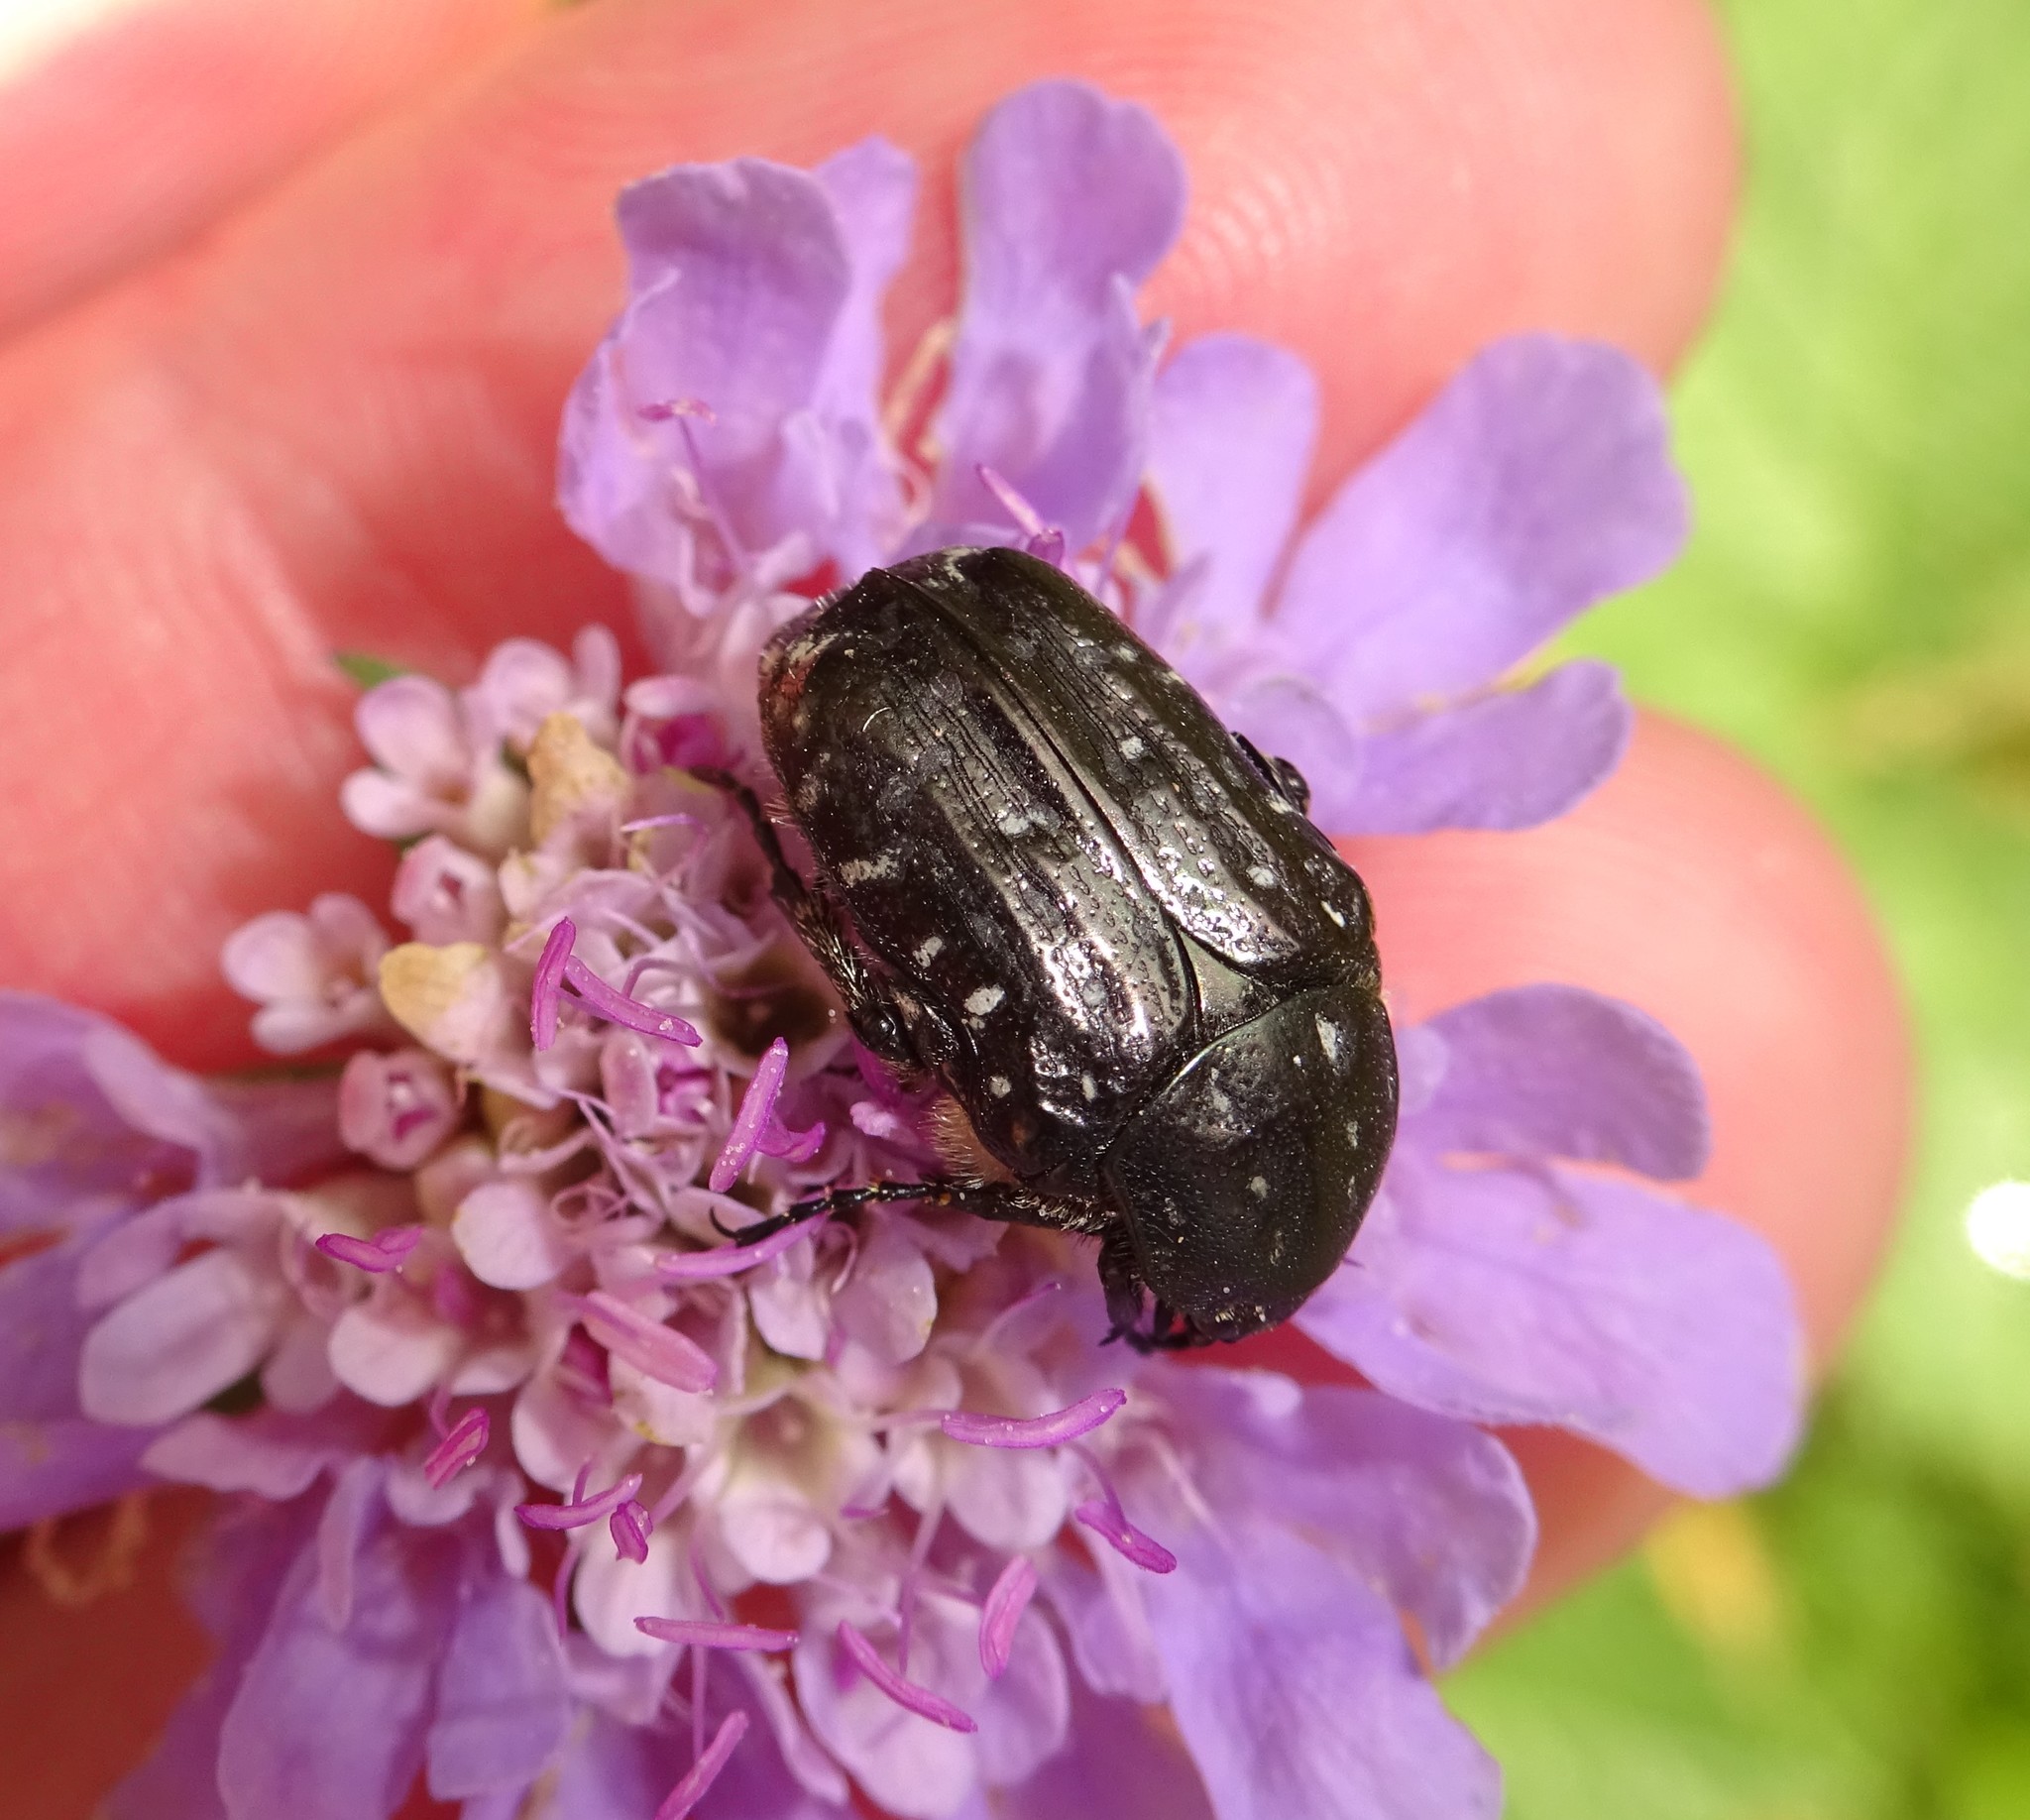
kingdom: Animalia
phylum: Arthropoda
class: Insecta
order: Coleoptera
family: Scarabaeidae
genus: Oxythyrea
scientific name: Oxythyrea funesta
